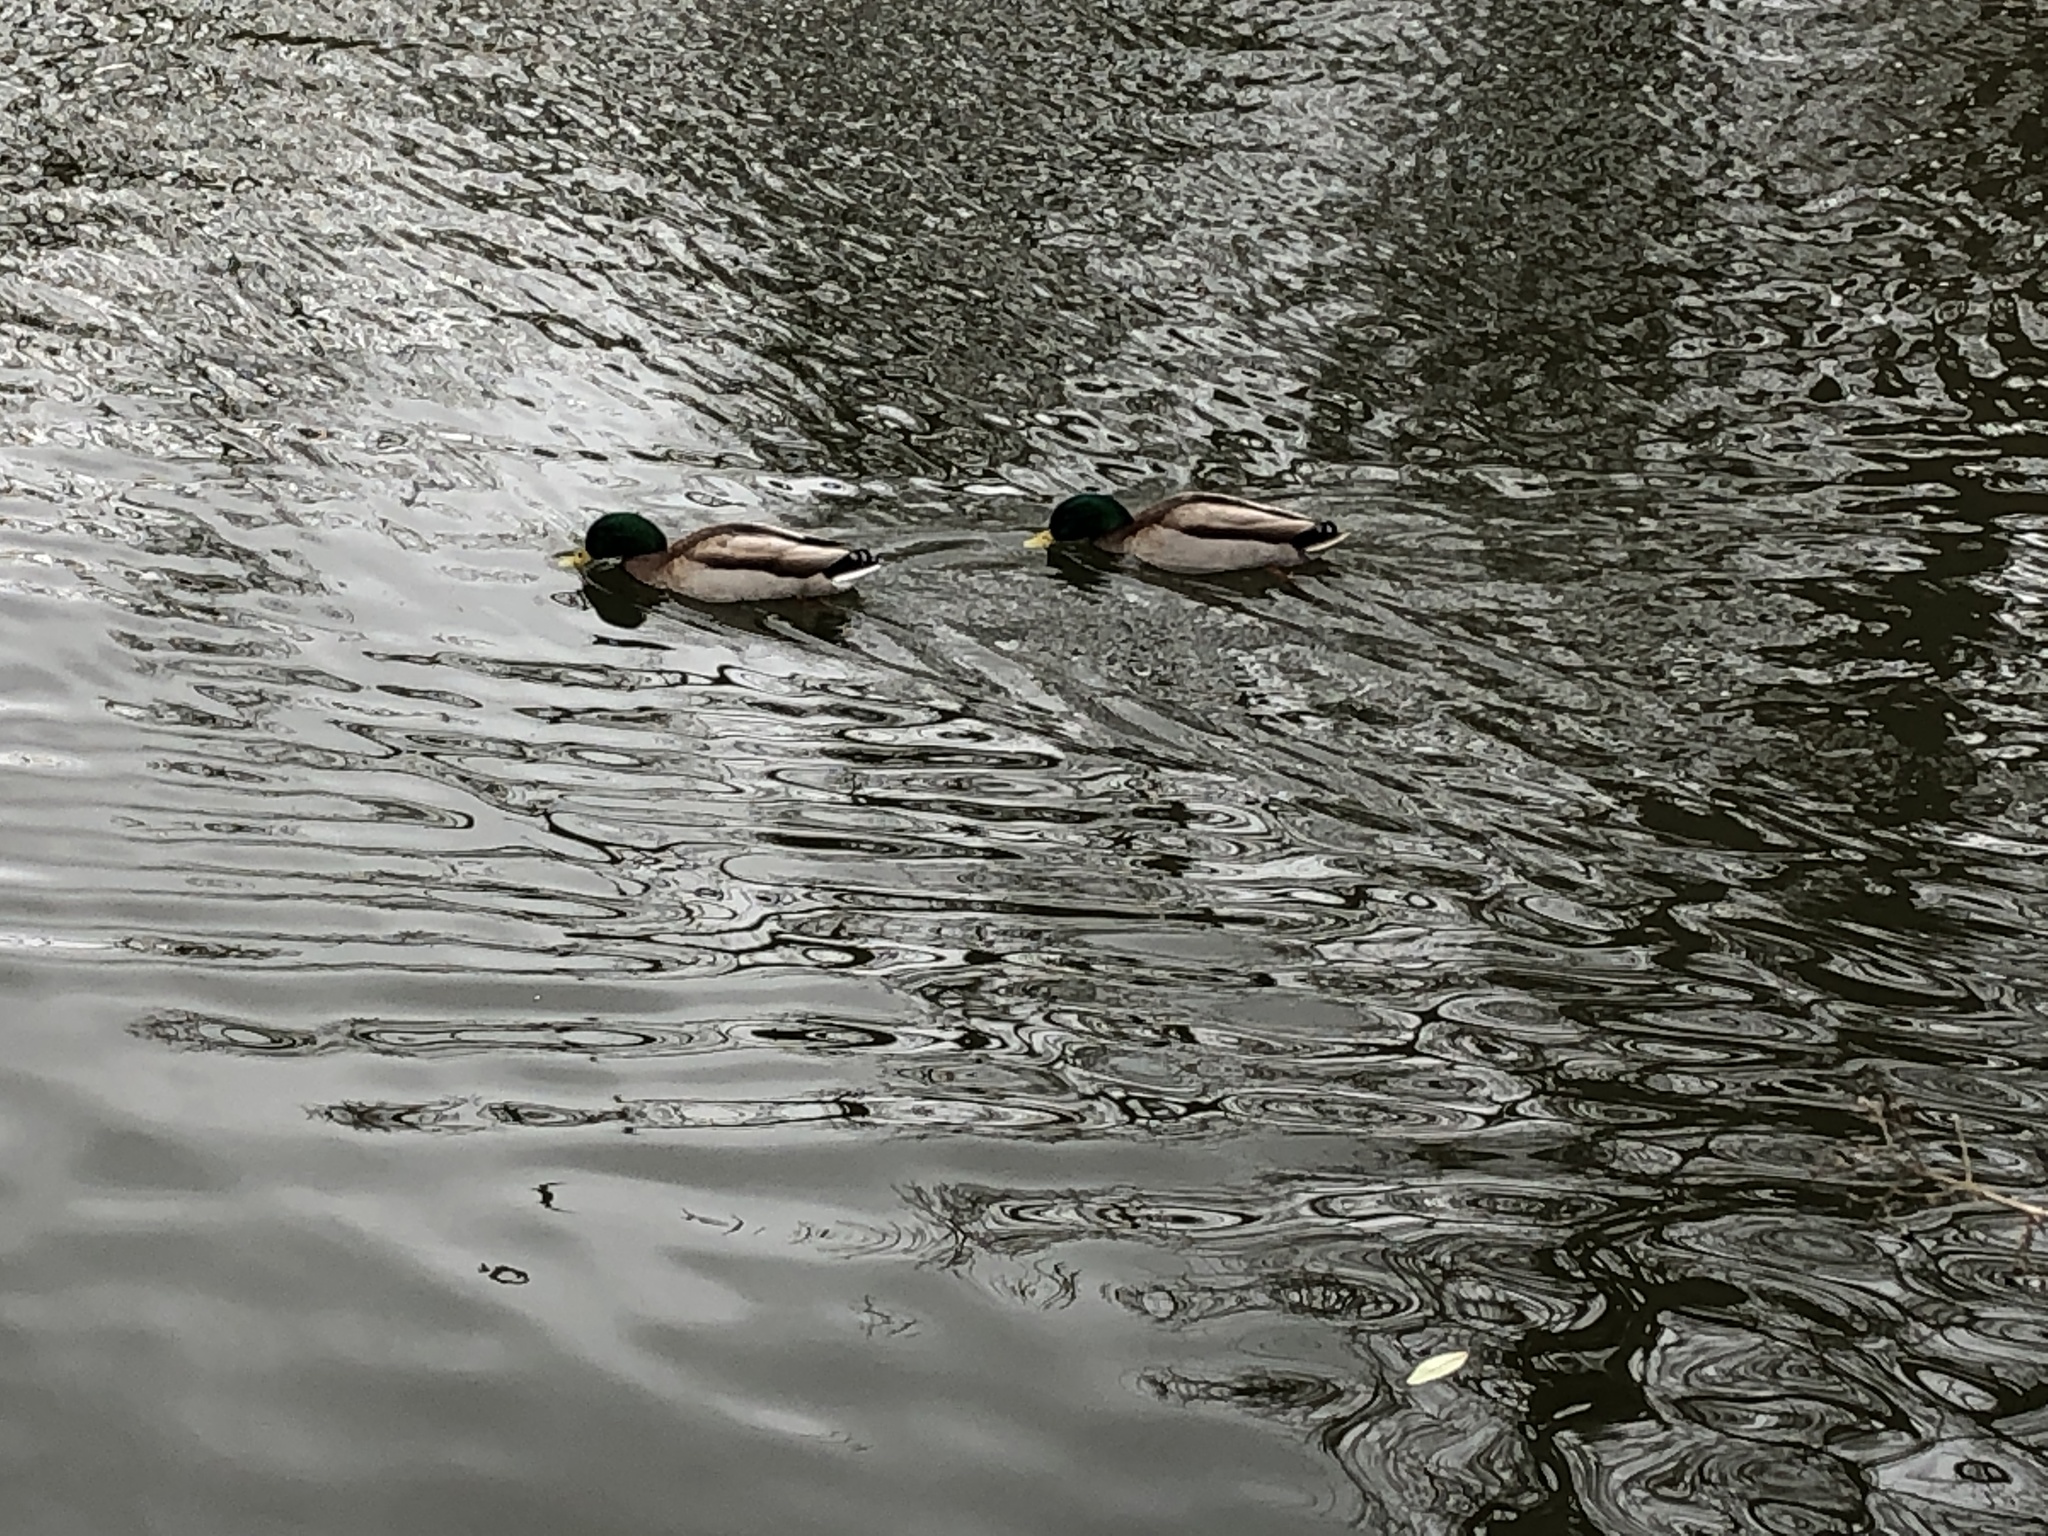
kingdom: Animalia
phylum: Chordata
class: Aves
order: Anseriformes
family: Anatidae
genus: Anas
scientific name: Anas platyrhynchos
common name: Mallard
